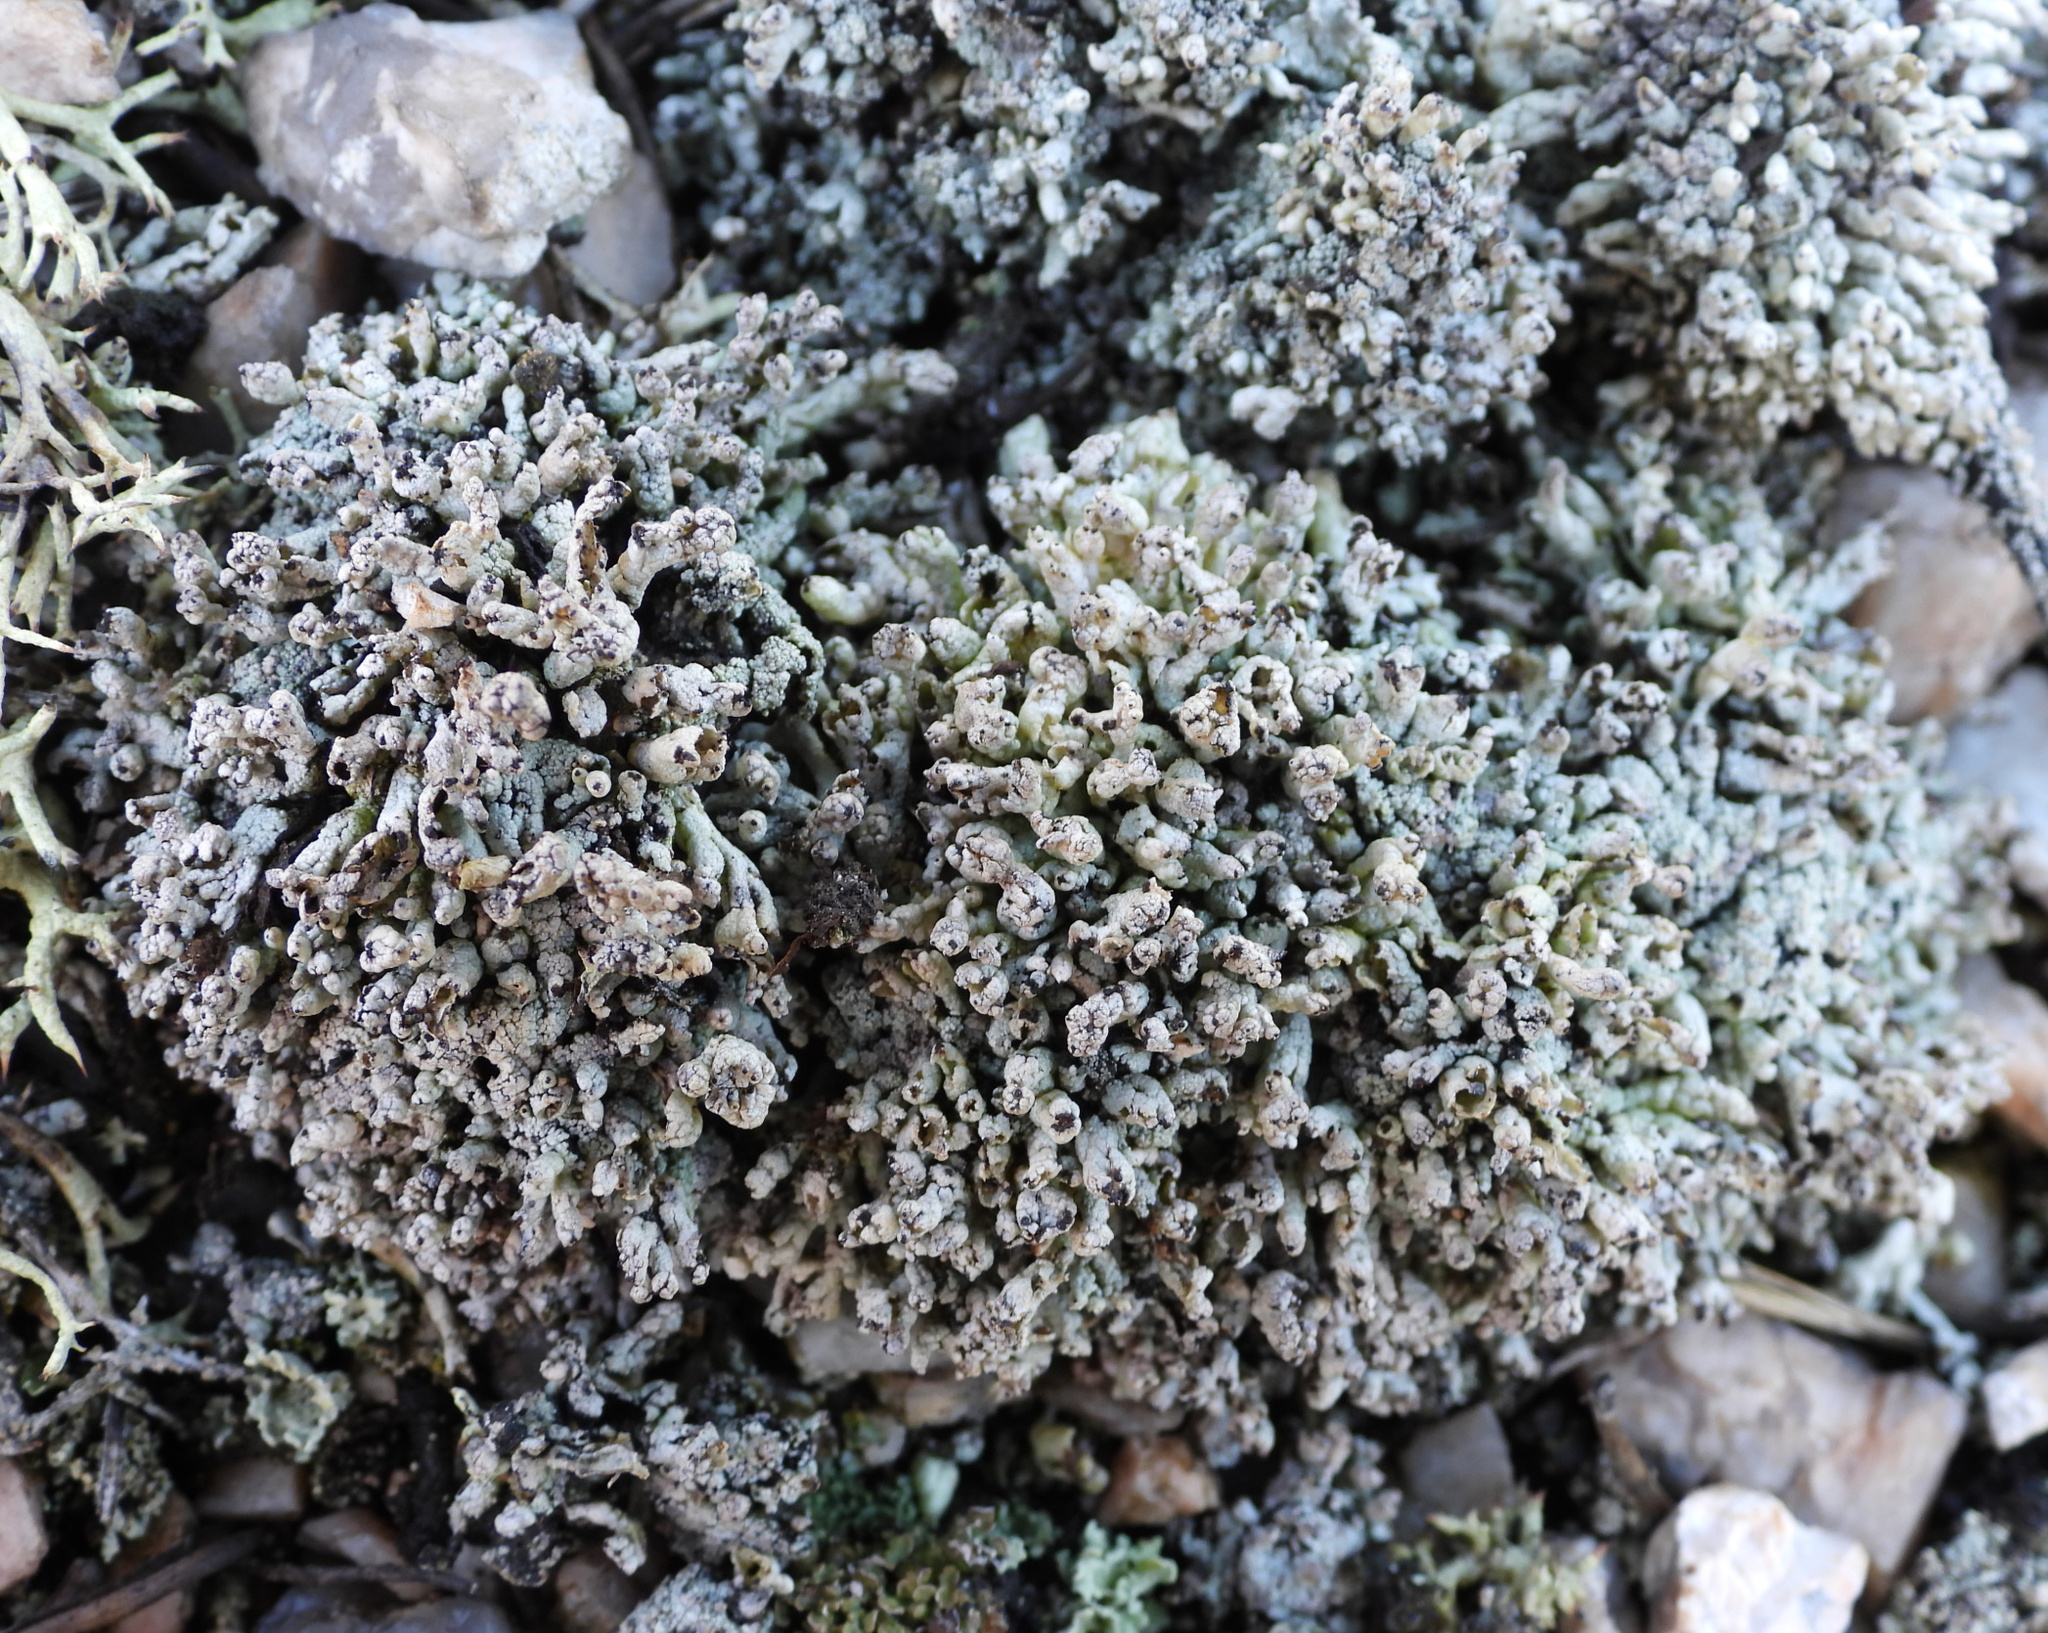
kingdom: Fungi
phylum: Ascomycota
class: Lecanoromycetes
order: Lecanorales
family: Cladoniaceae
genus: Pycnothelia
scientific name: Pycnothelia papillaria
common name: Nipple lichen
